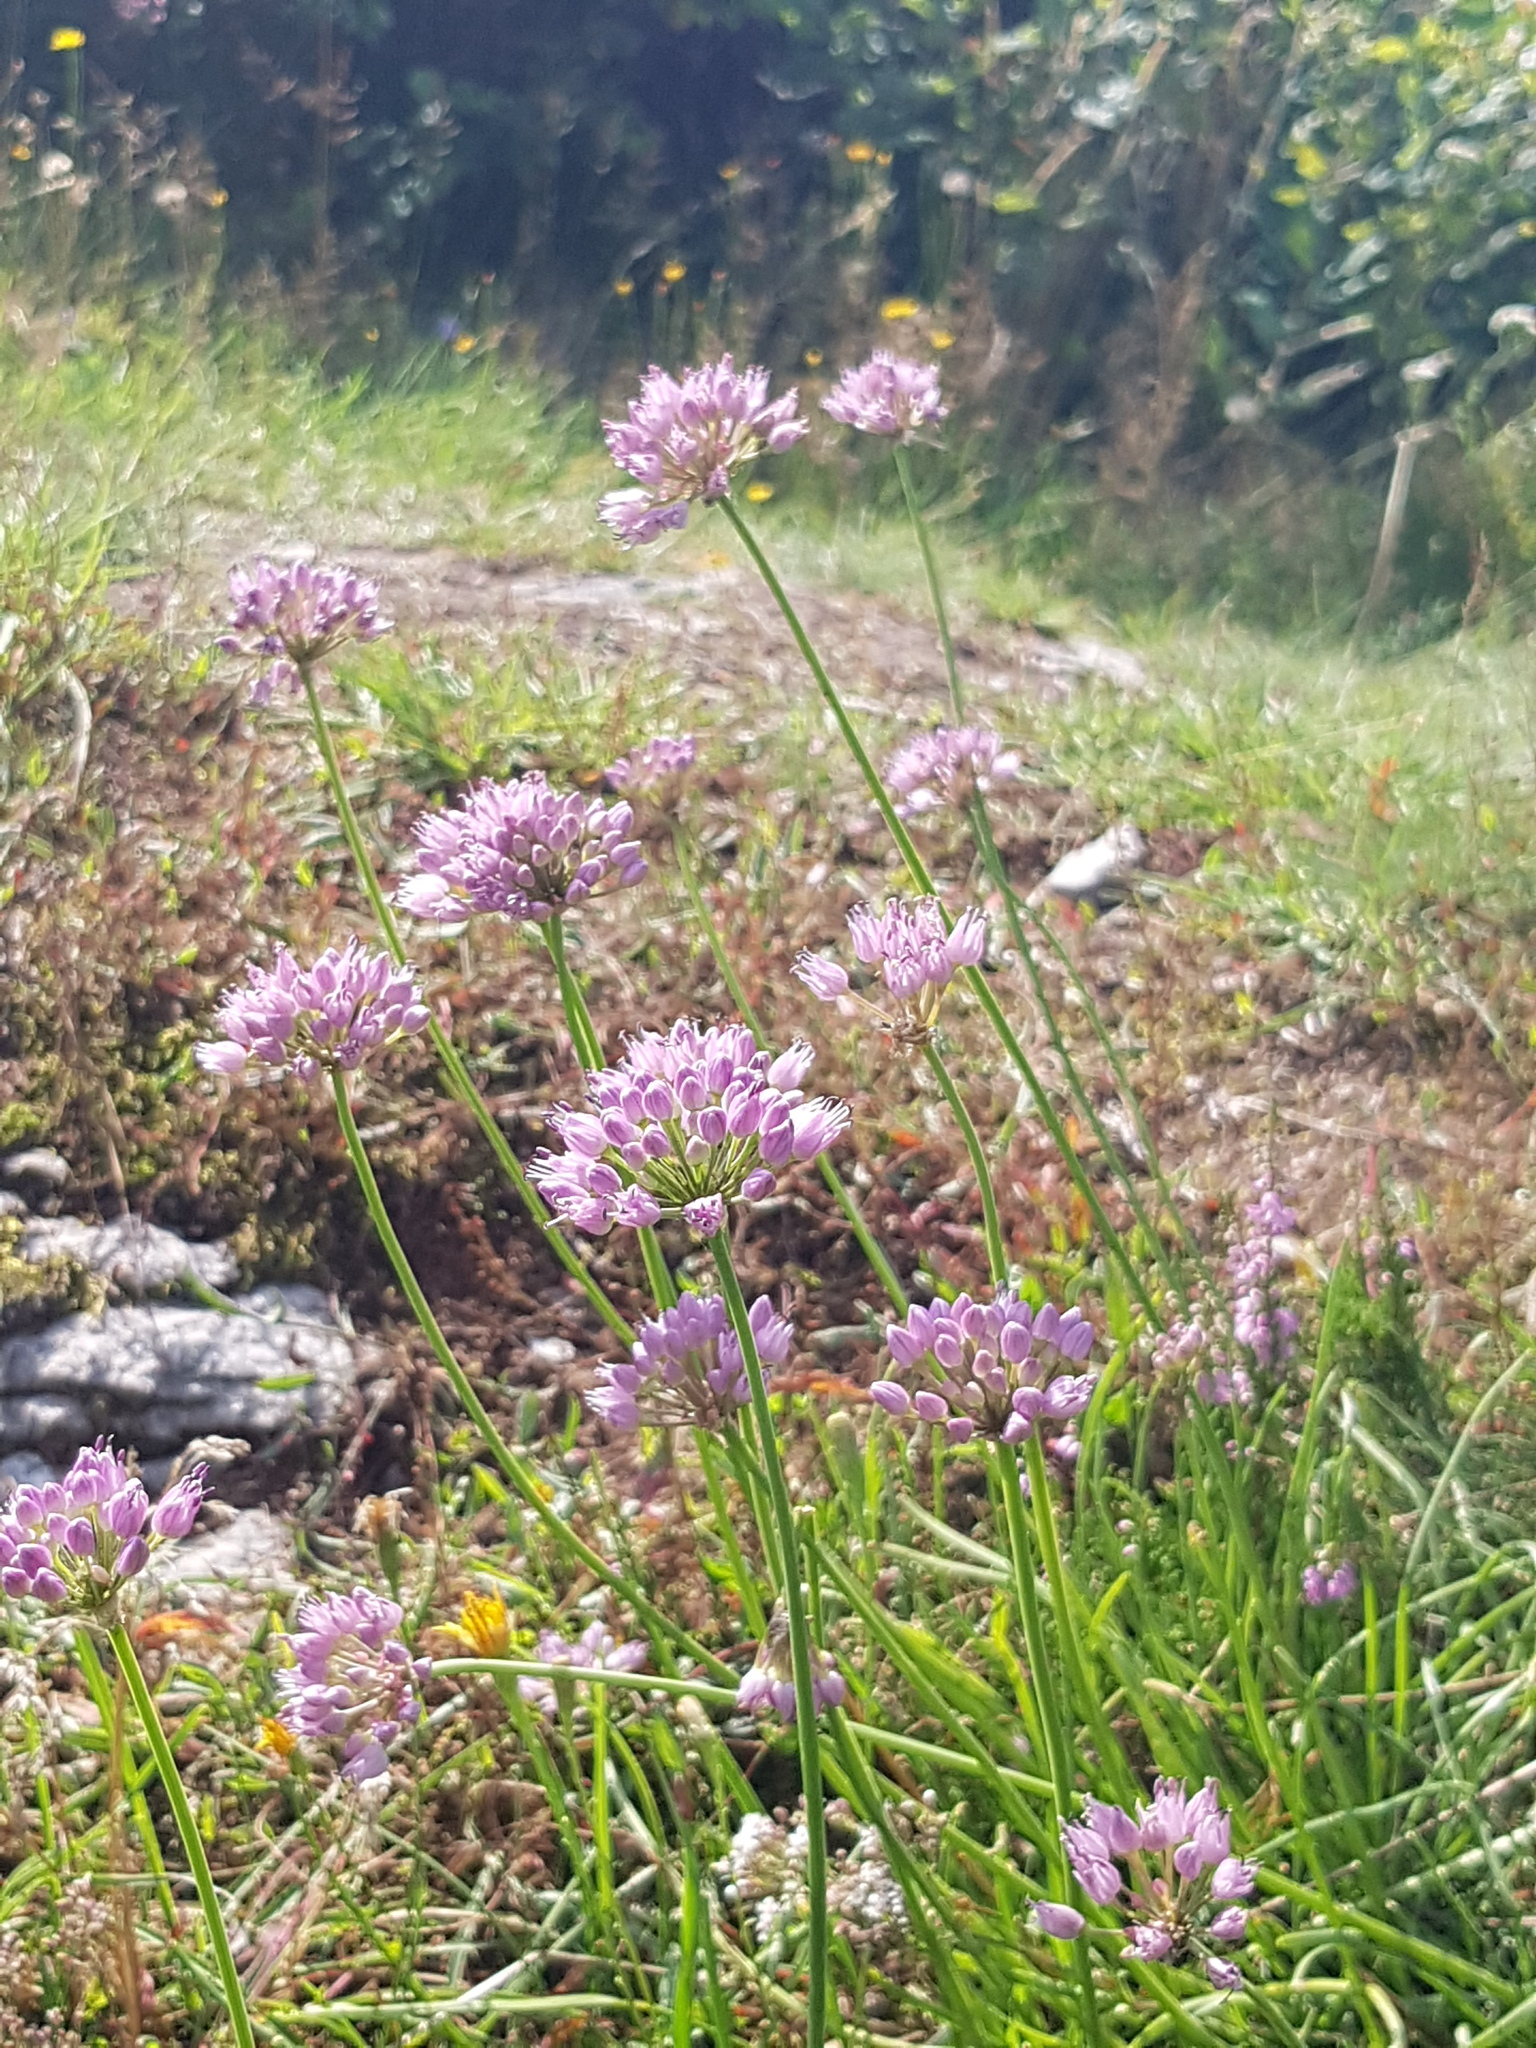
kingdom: Plantae
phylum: Tracheophyta
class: Liliopsida
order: Asparagales
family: Amaryllidaceae
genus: Allium
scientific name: Allium angulosum
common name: Mouse garlic
